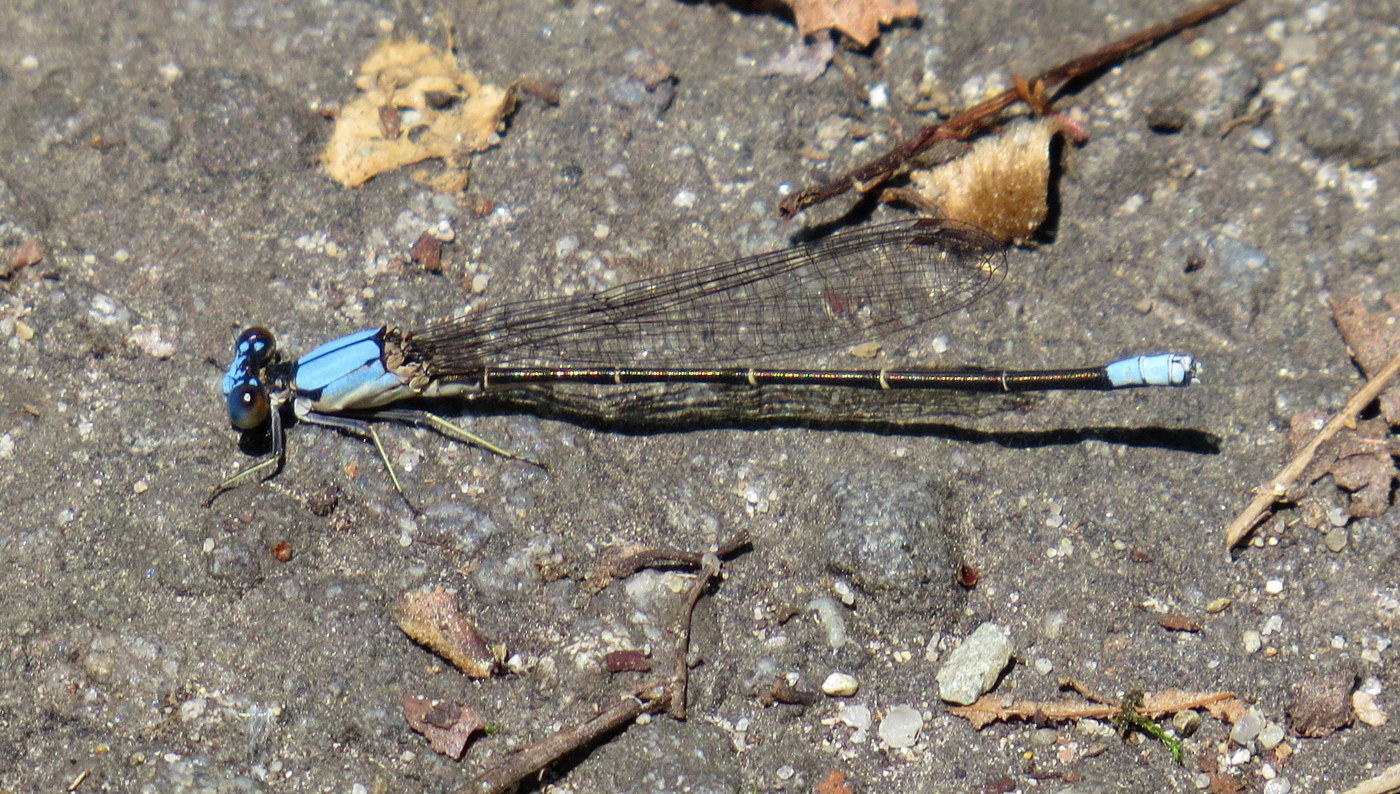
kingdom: Animalia
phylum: Arthropoda
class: Insecta
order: Odonata
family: Coenagrionidae
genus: Argia
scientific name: Argia apicalis
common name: Blue-fronted dancer
